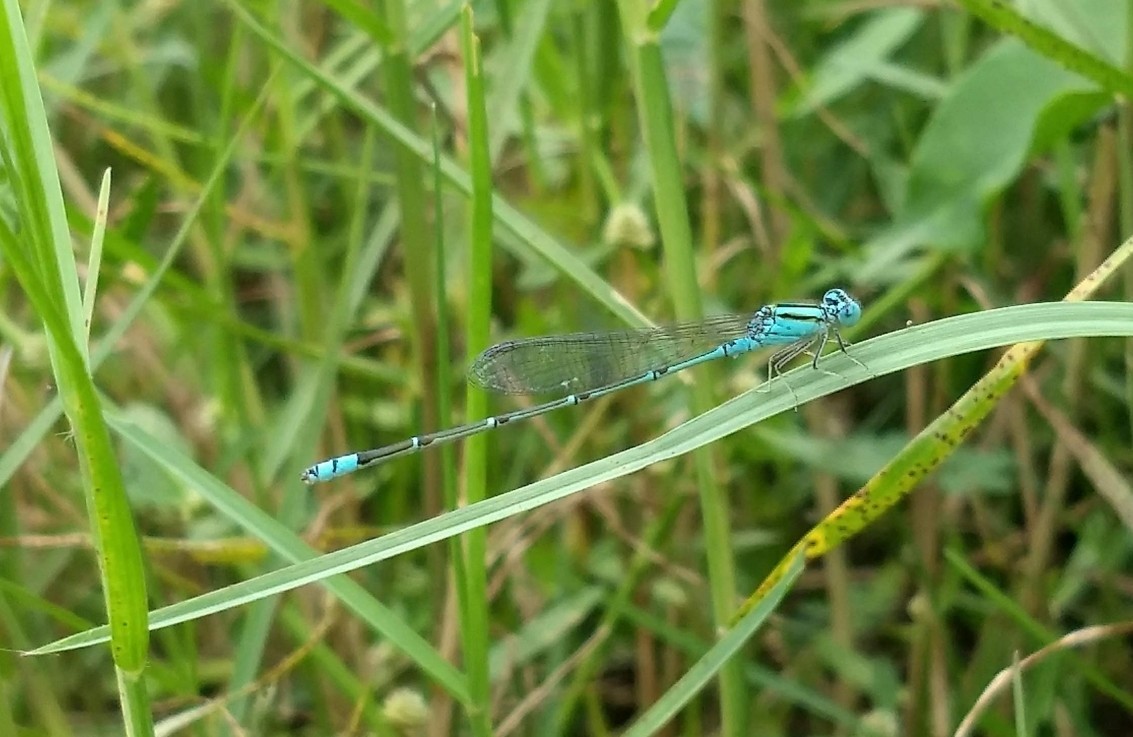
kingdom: Animalia
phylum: Arthropoda
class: Insecta
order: Odonata
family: Coenagrionidae
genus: Pseudagrion
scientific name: Pseudagrion microcephalum
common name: Blue riverdamsel
